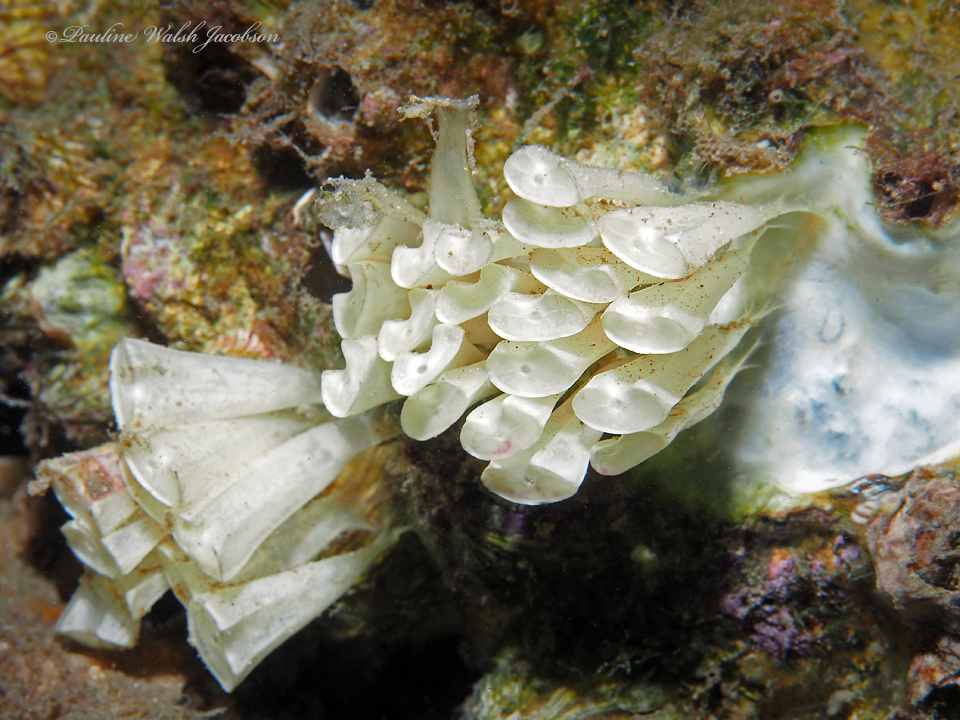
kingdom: Animalia
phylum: Mollusca
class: Gastropoda
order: Neogastropoda
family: Muricidae
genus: Hexaplex
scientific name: Hexaplex fulvescens
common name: Tawny murex
